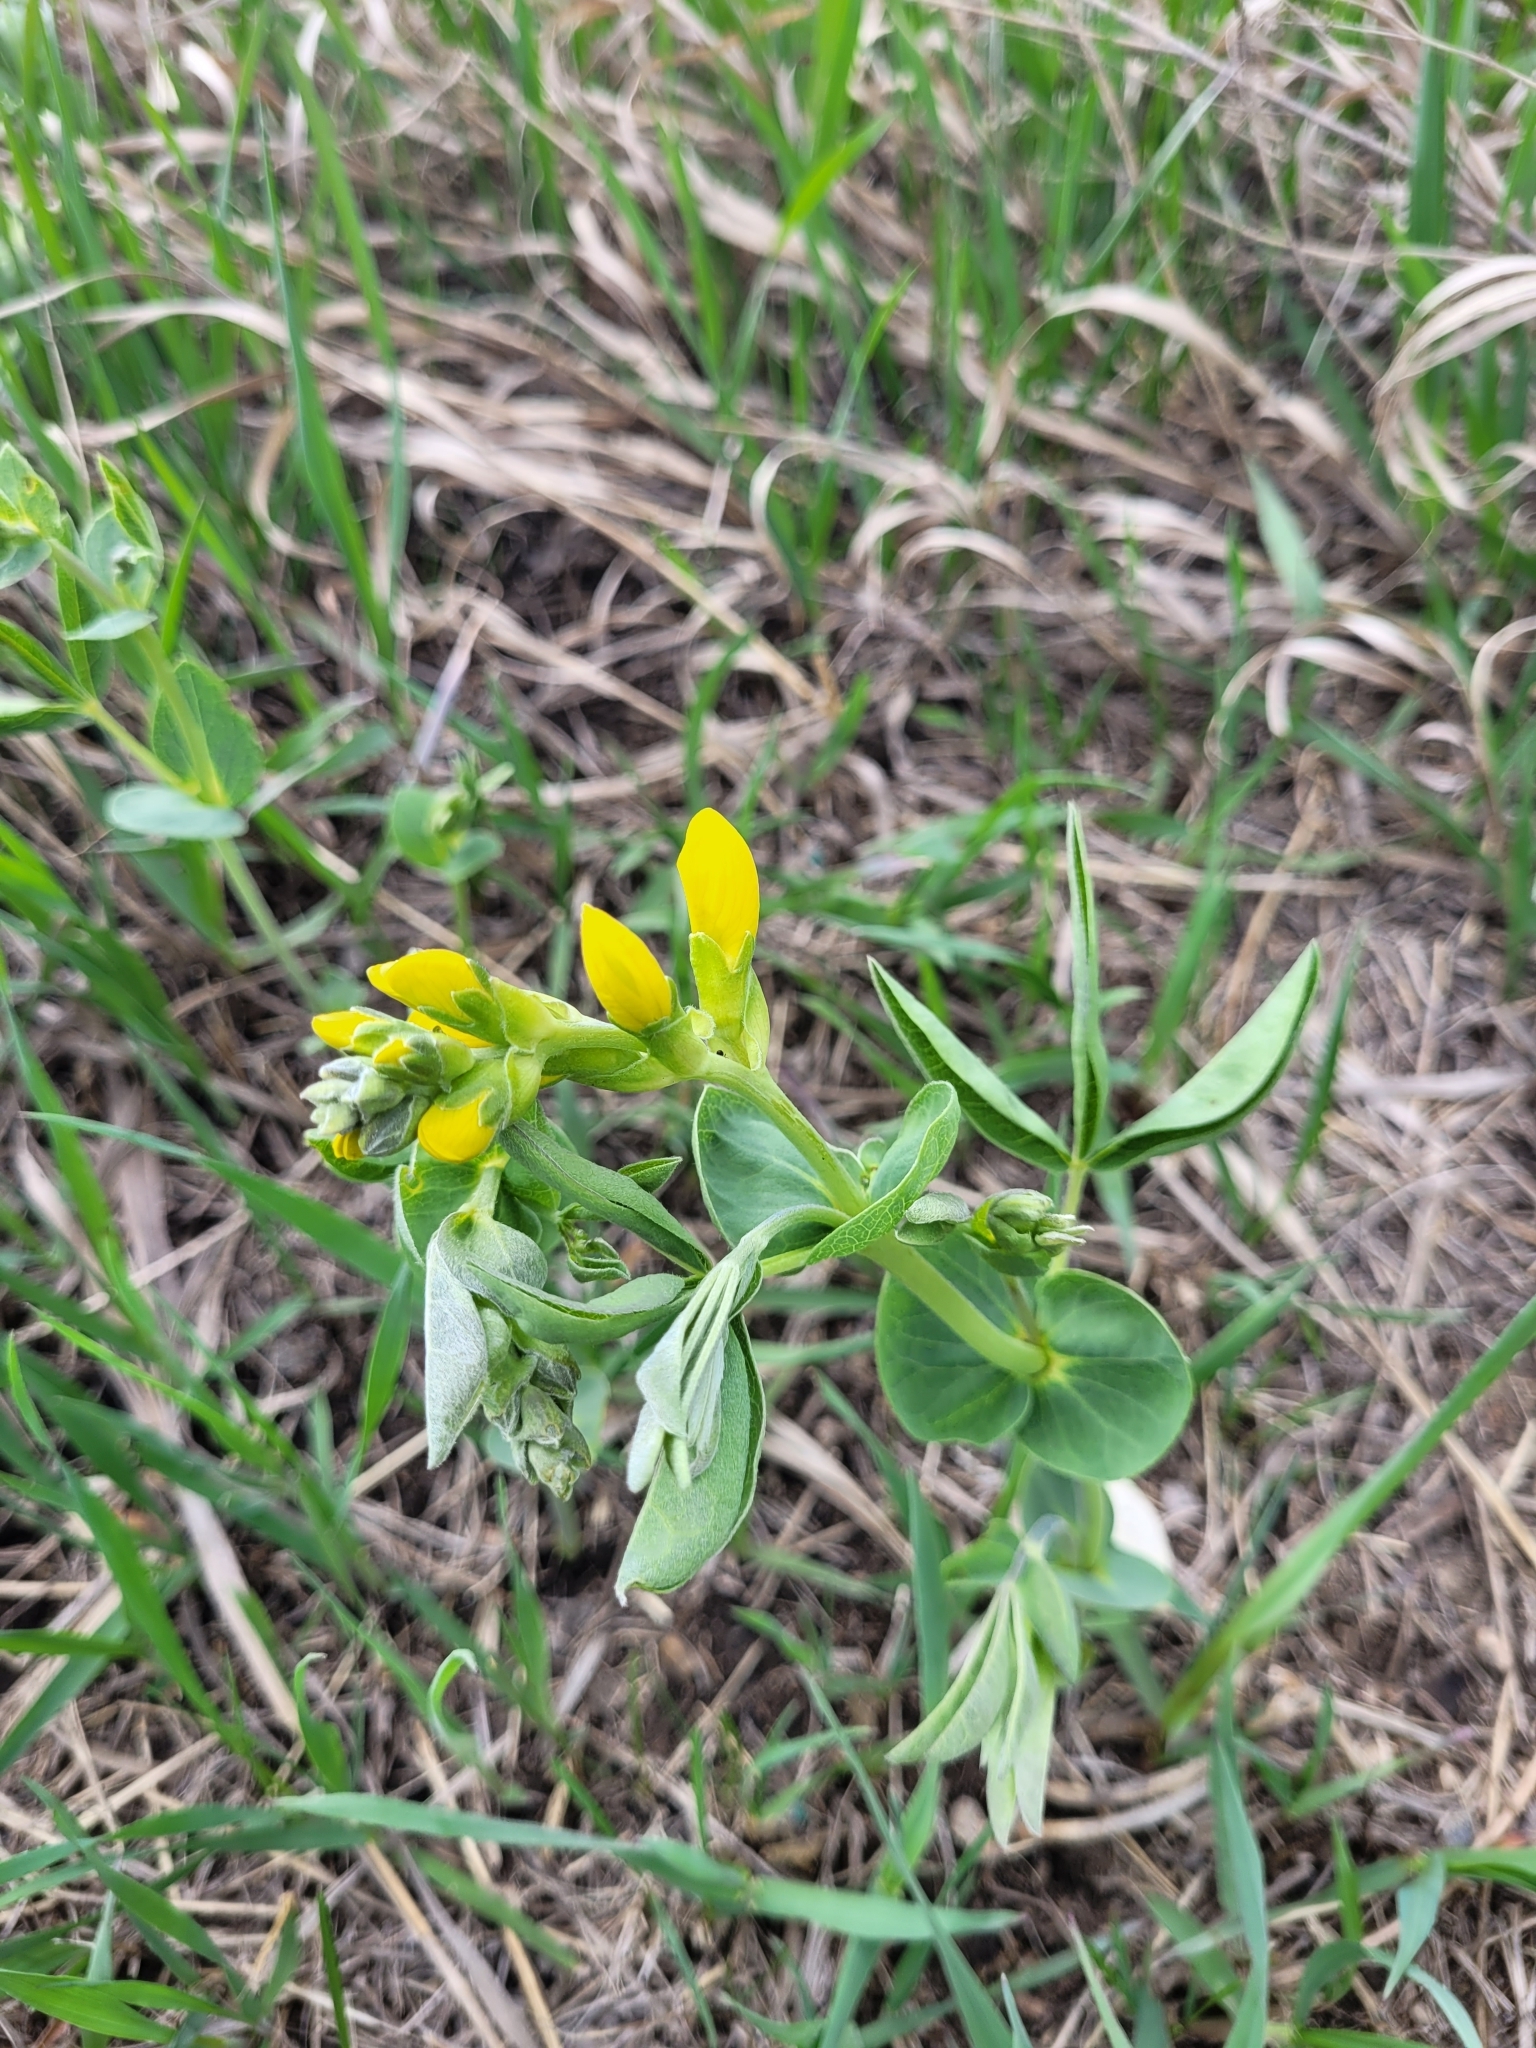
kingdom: Plantae
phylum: Tracheophyta
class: Magnoliopsida
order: Fabales
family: Fabaceae
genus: Thermopsis
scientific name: Thermopsis rhombifolia
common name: Circle-pod-pea
